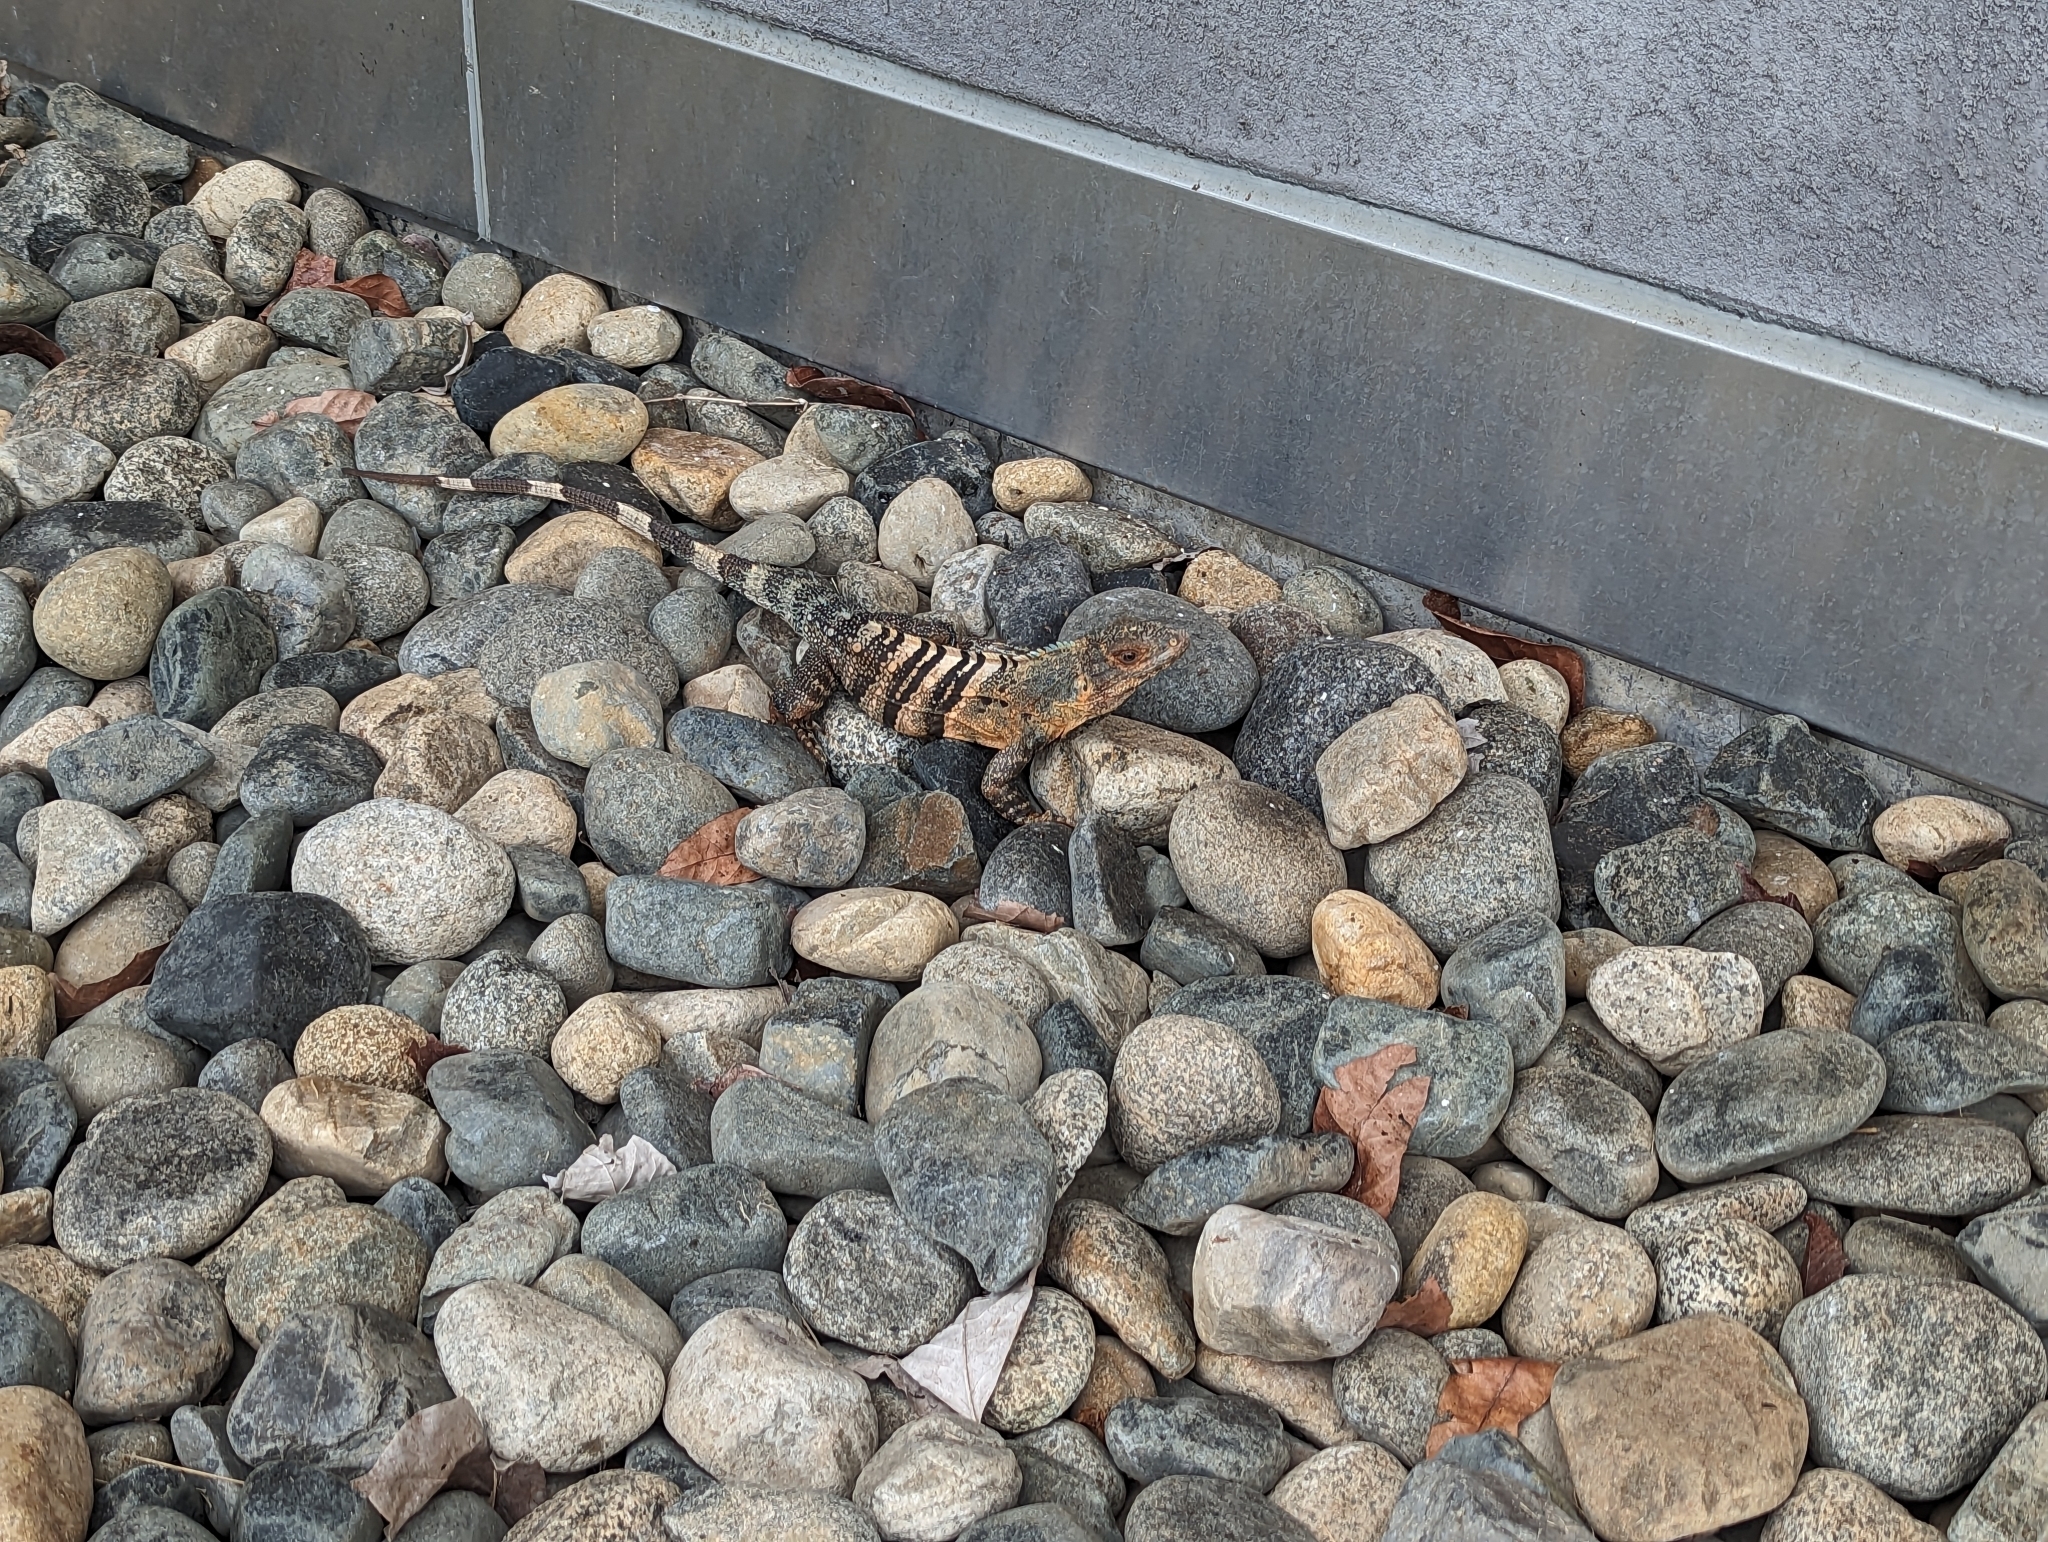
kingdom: Animalia
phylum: Chordata
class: Squamata
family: Iguanidae
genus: Ctenosaura
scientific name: Ctenosaura similis
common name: Black spiny-tailed iguana
